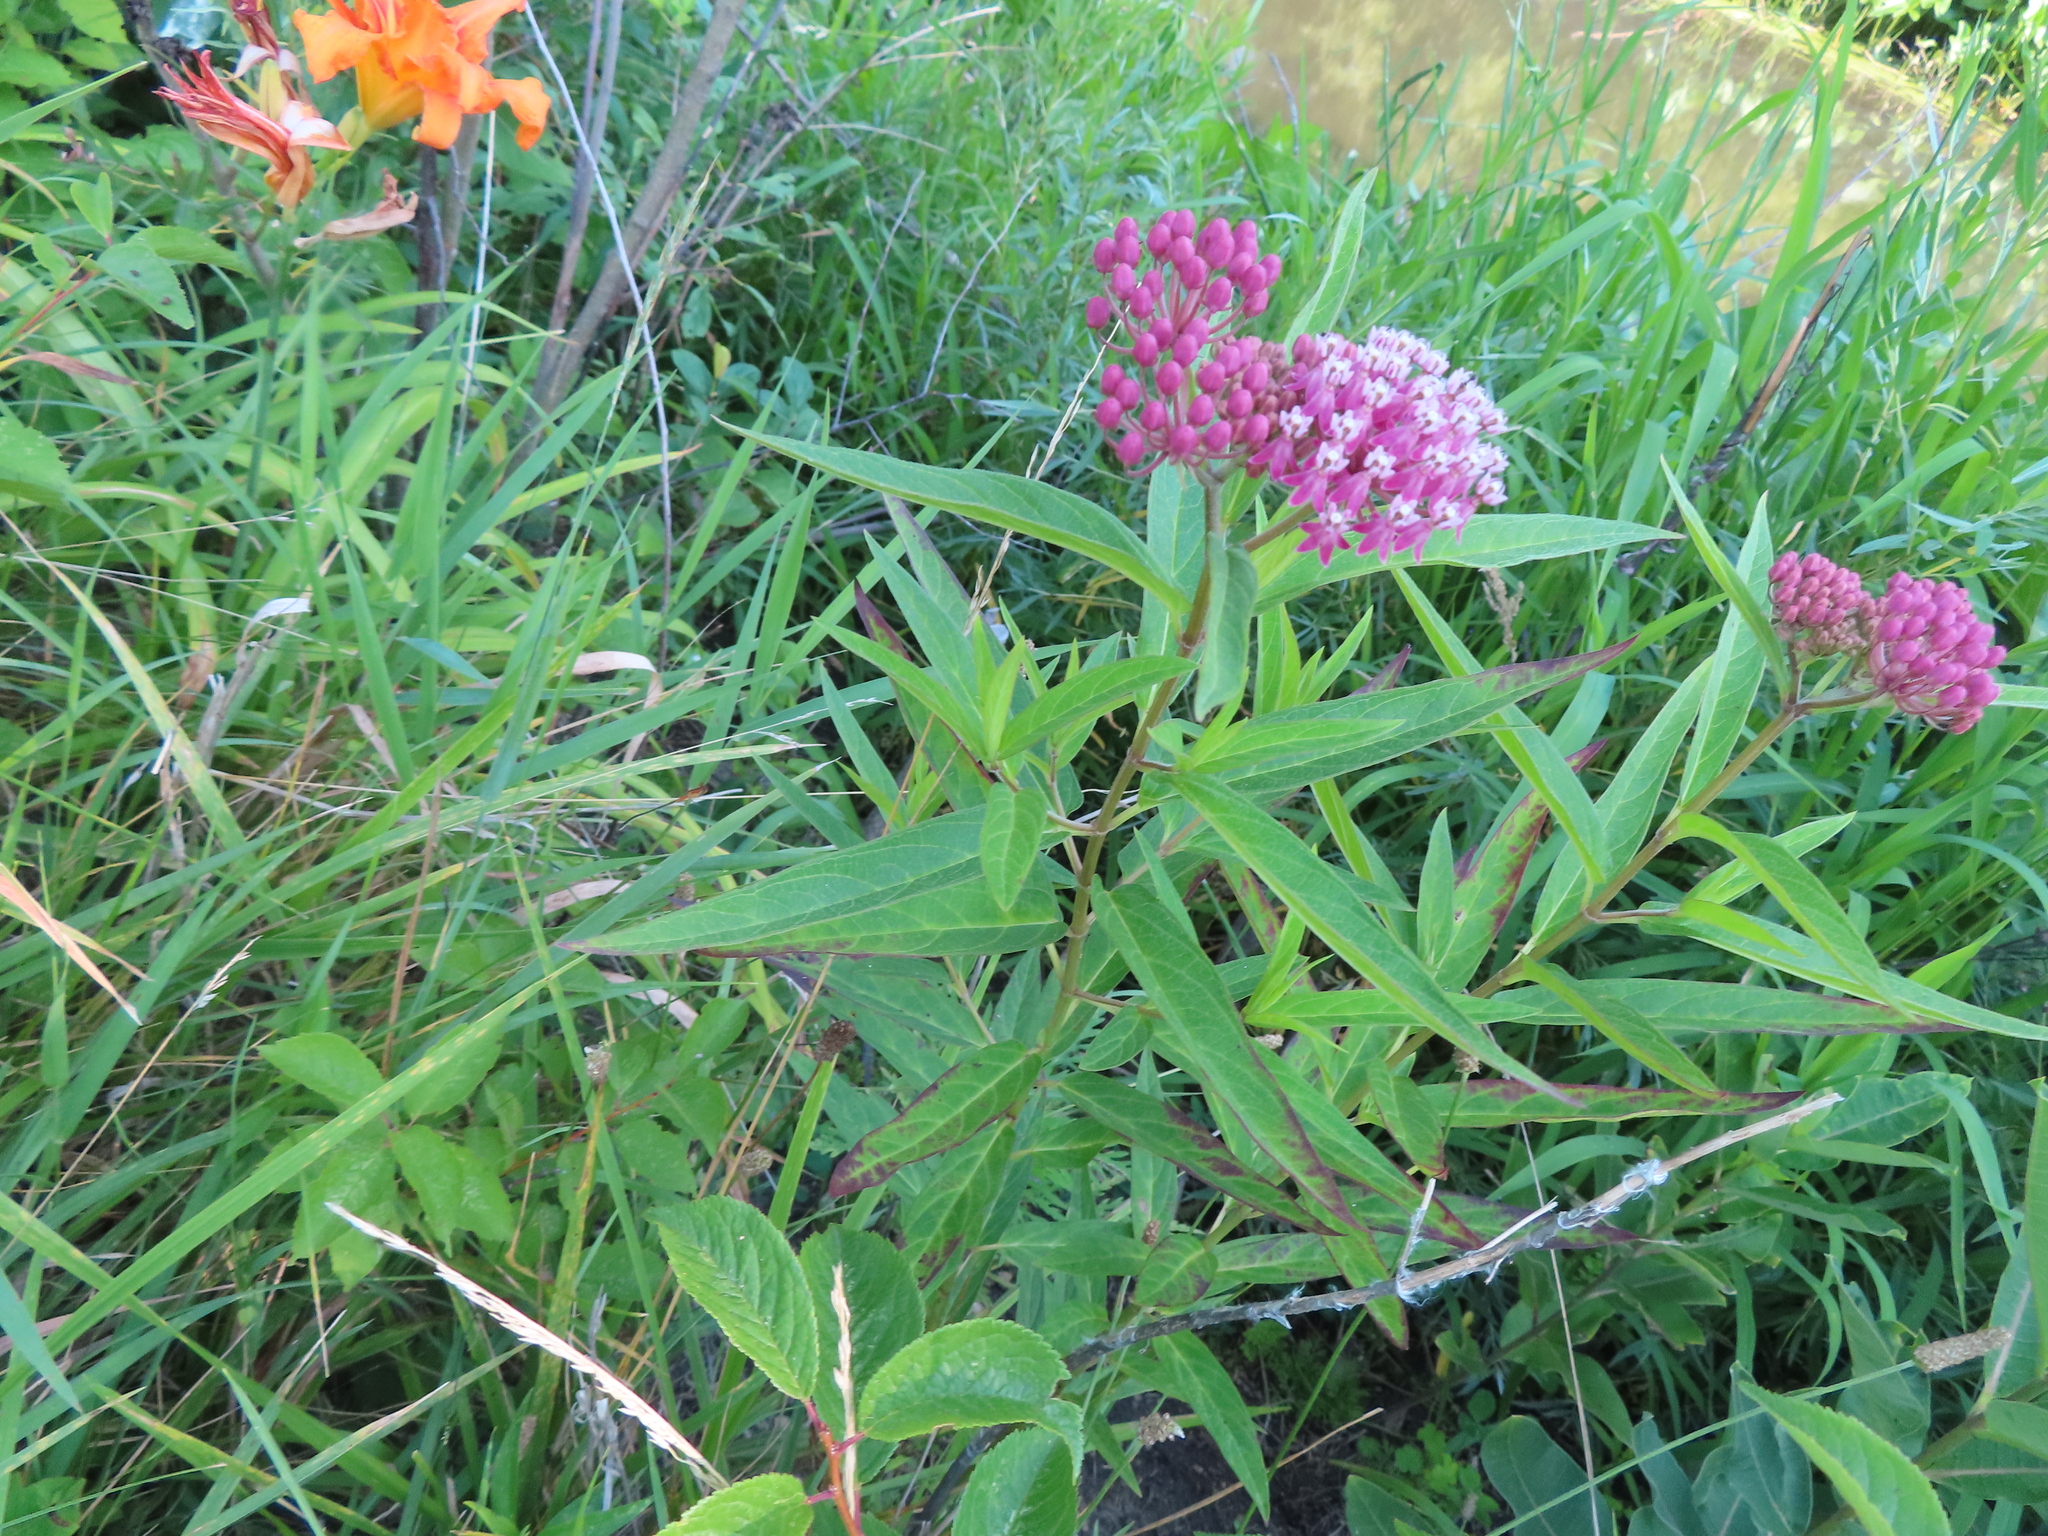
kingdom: Plantae
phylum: Tracheophyta
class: Magnoliopsida
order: Gentianales
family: Apocynaceae
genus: Asclepias
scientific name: Asclepias incarnata
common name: Swamp milkweed
